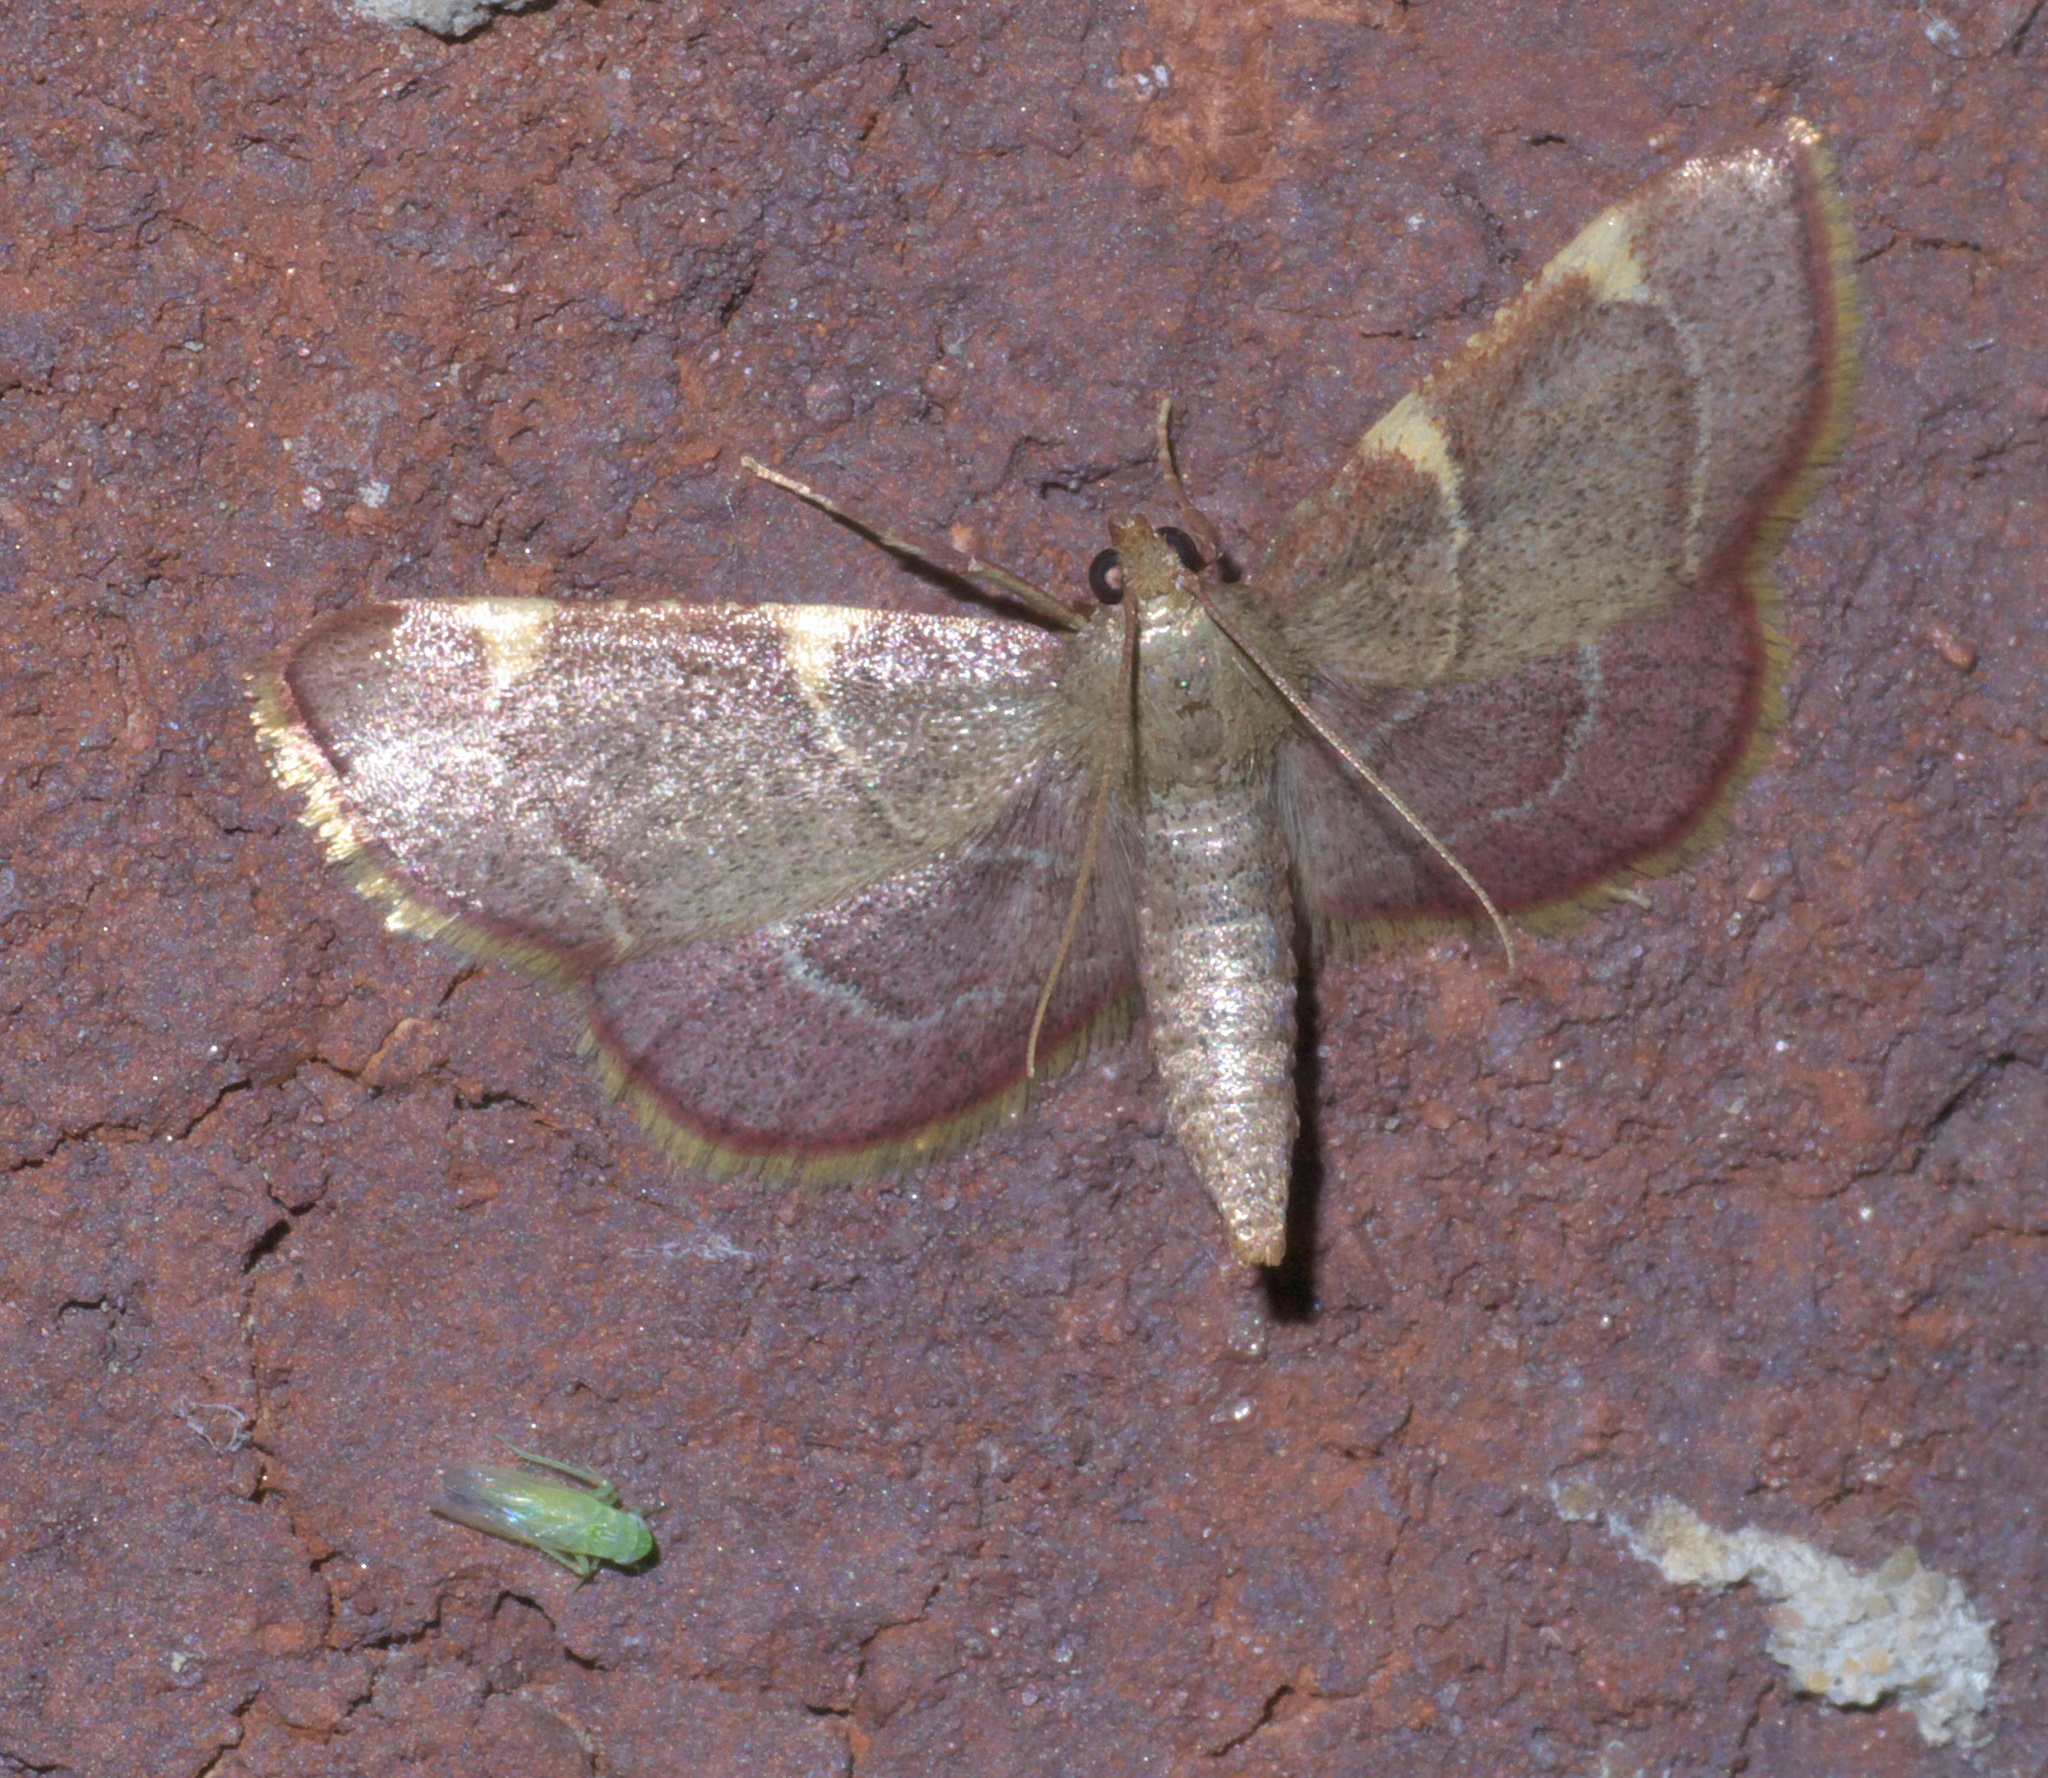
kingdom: Animalia
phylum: Arthropoda
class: Insecta
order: Lepidoptera
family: Pyralidae
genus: Hypsopygia
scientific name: Hypsopygia olinalis
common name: Yellow-fringed dolichomia moth
